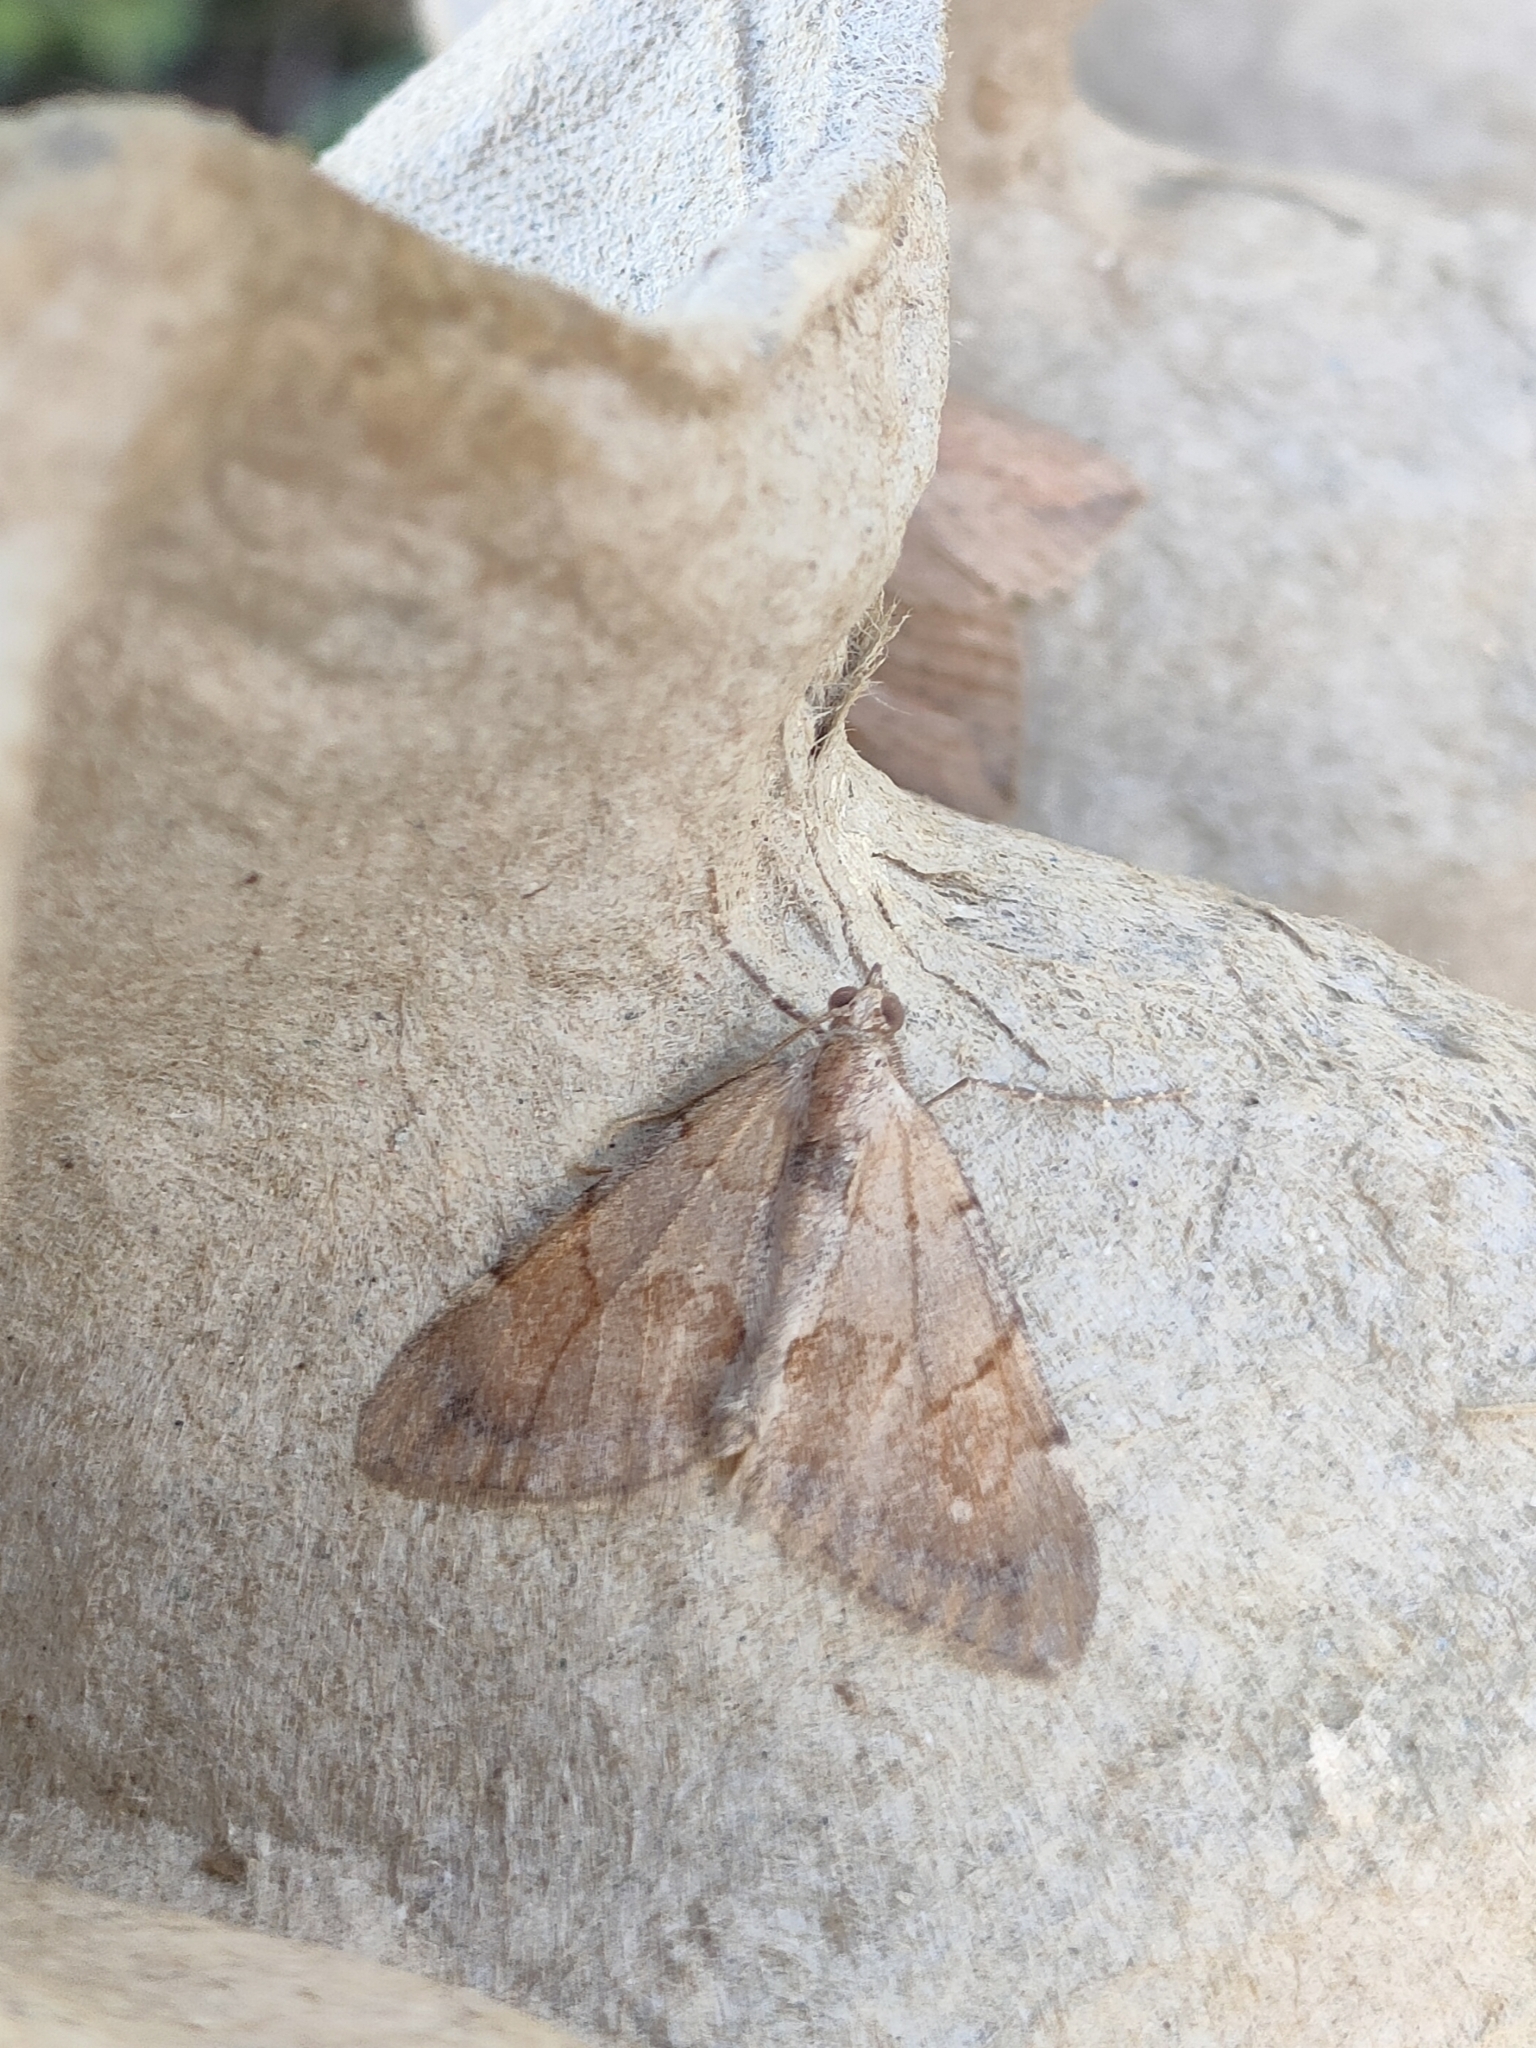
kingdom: Animalia
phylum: Arthropoda
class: Insecta
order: Lepidoptera
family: Geometridae
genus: Pennithera
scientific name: Pennithera firmata
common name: Pine carpet
